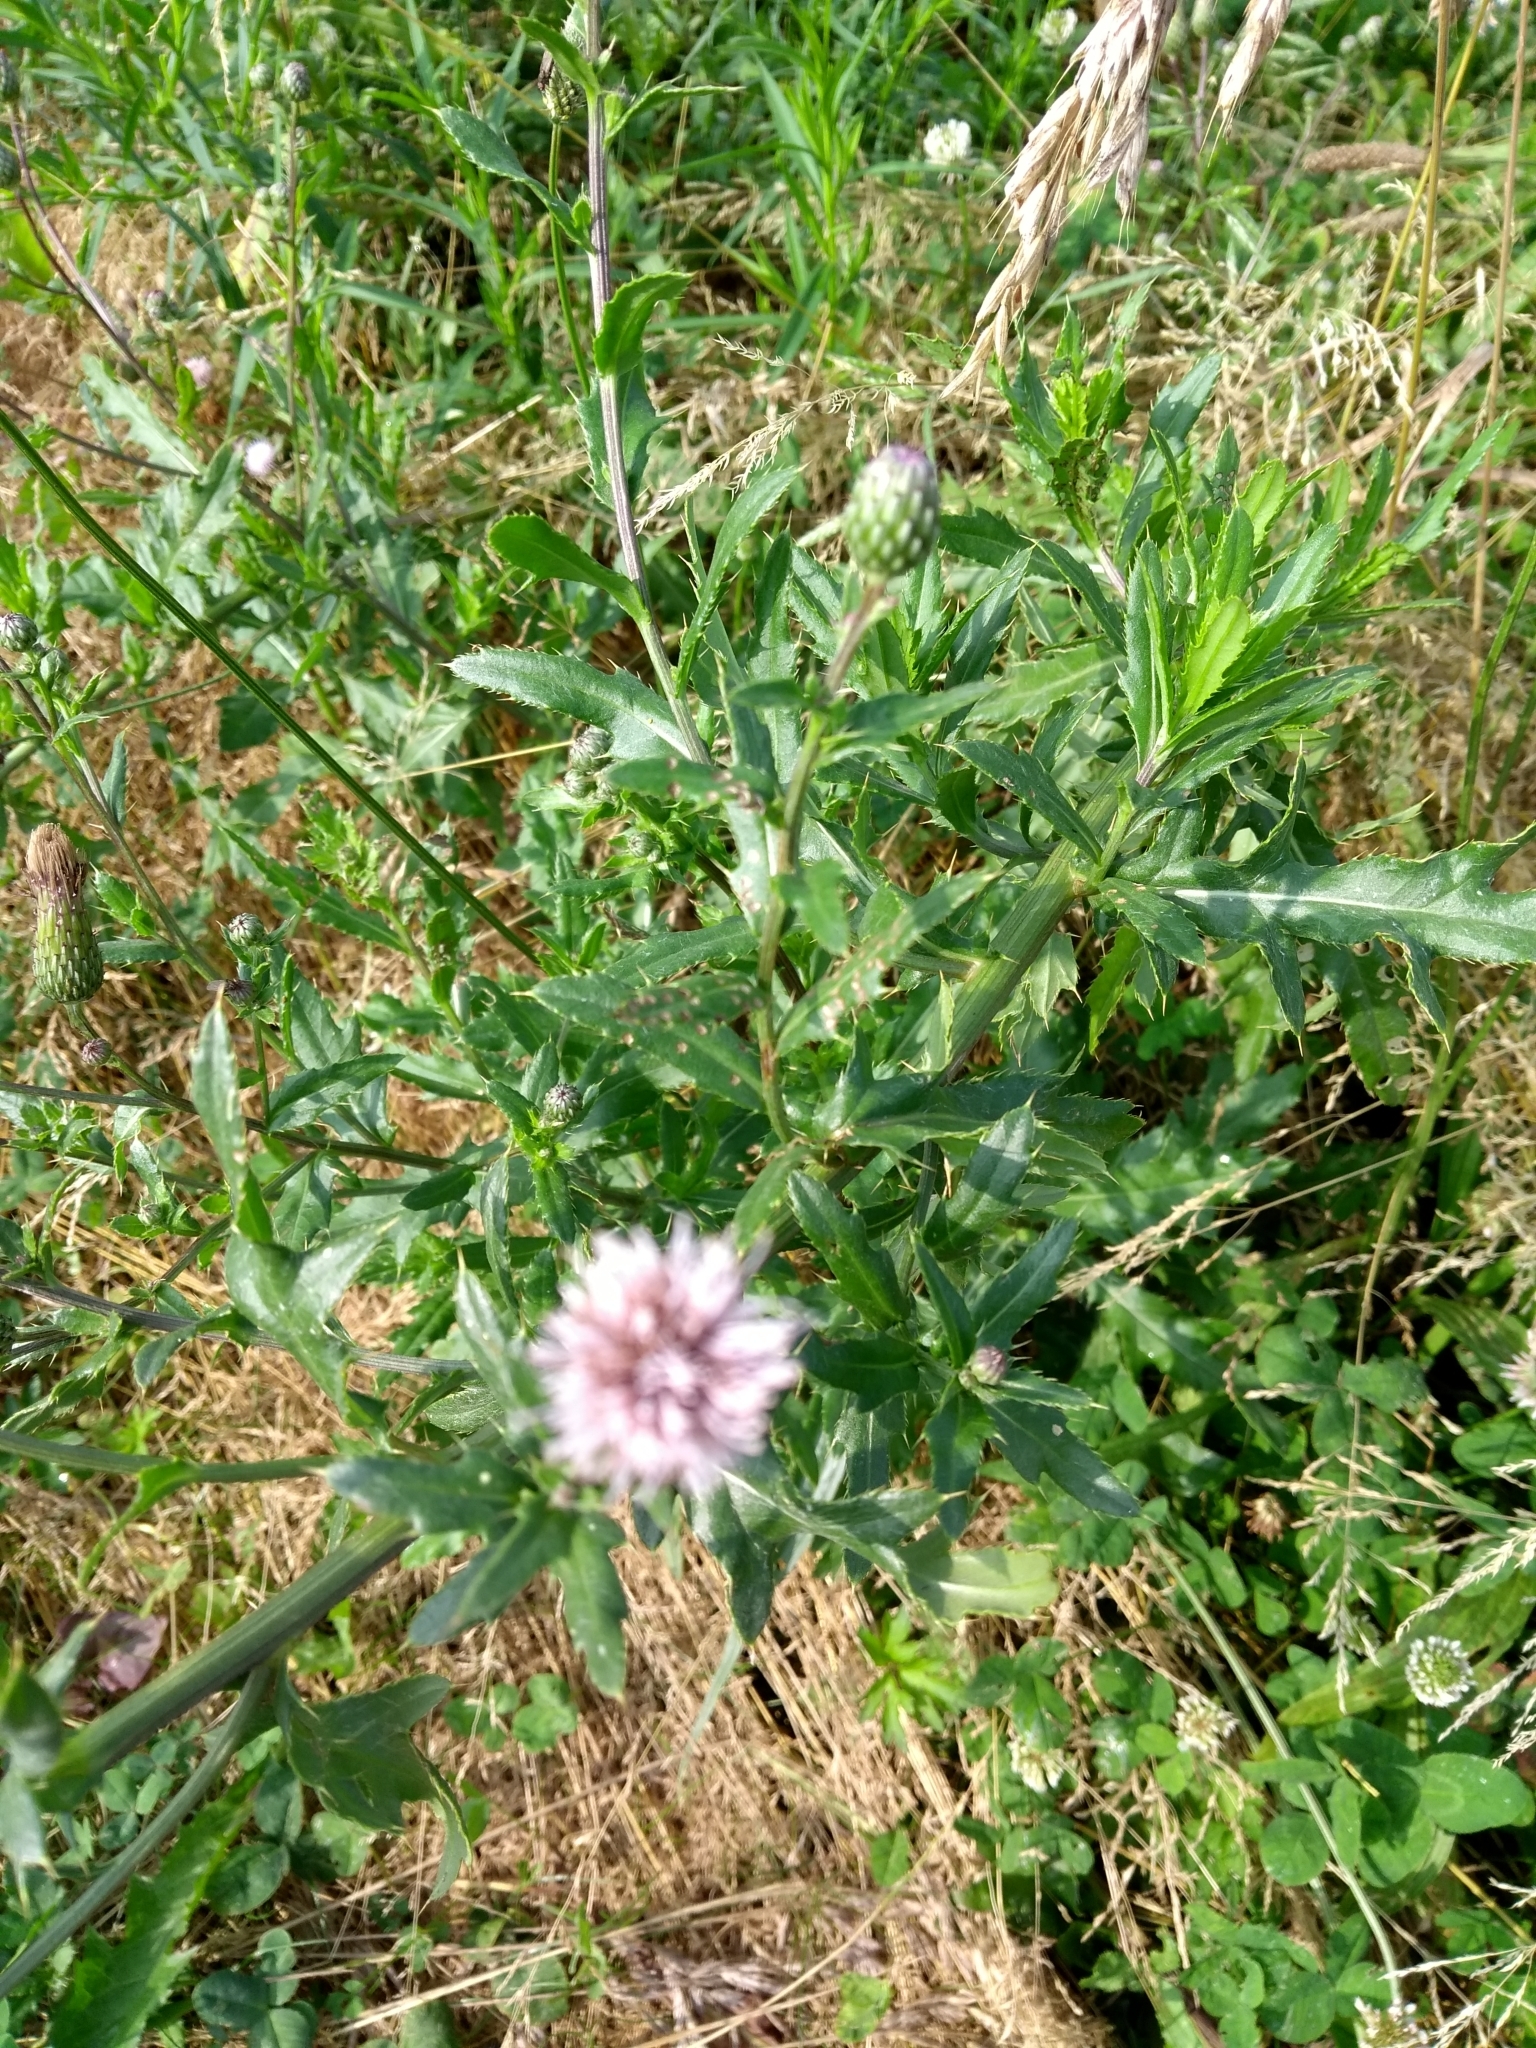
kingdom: Plantae
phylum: Tracheophyta
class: Magnoliopsida
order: Asterales
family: Asteraceae
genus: Cirsium
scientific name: Cirsium arvense
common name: Creeping thistle
